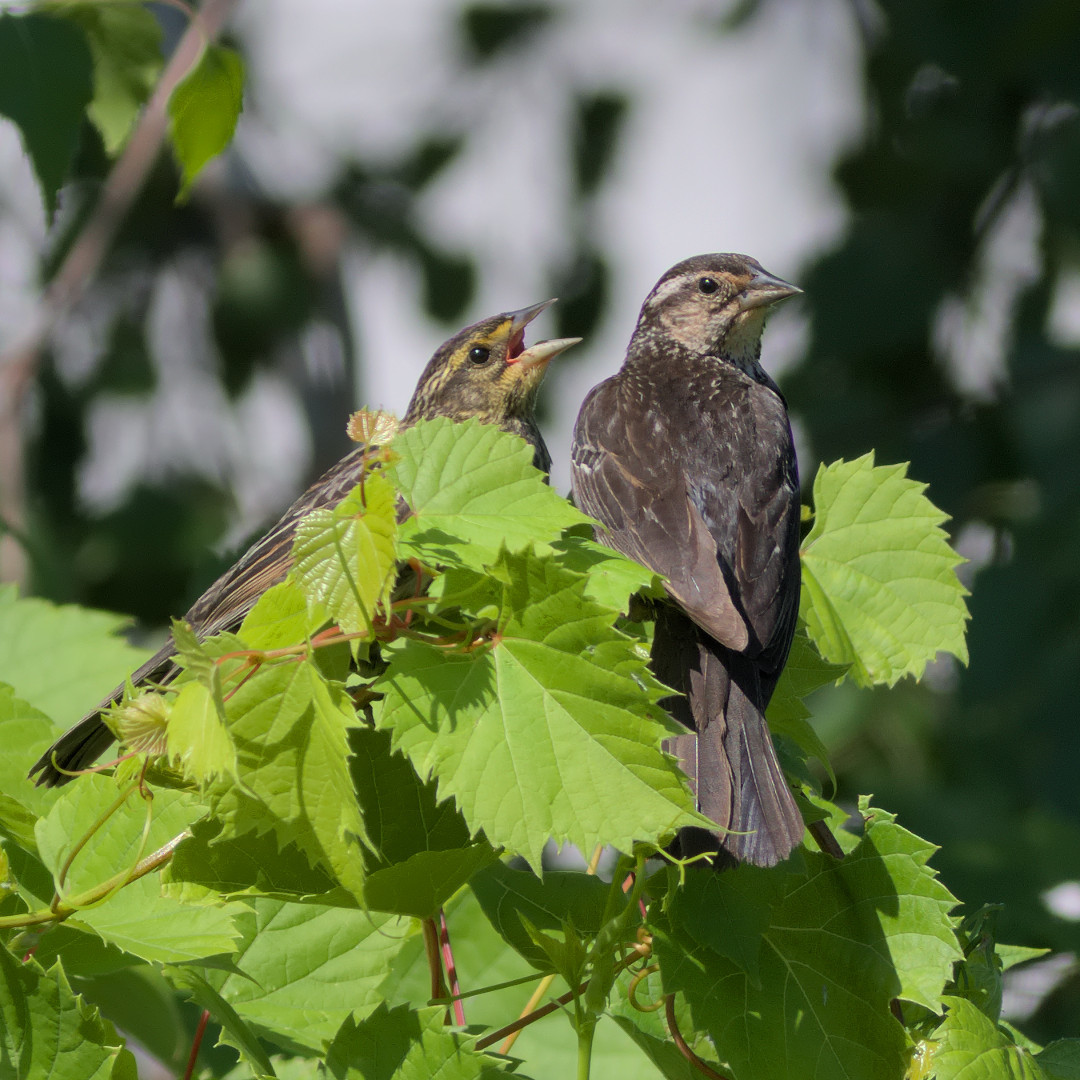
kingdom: Animalia
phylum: Chordata
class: Aves
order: Passeriformes
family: Icteridae
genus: Agelaius
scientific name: Agelaius phoeniceus
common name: Red-winged blackbird
